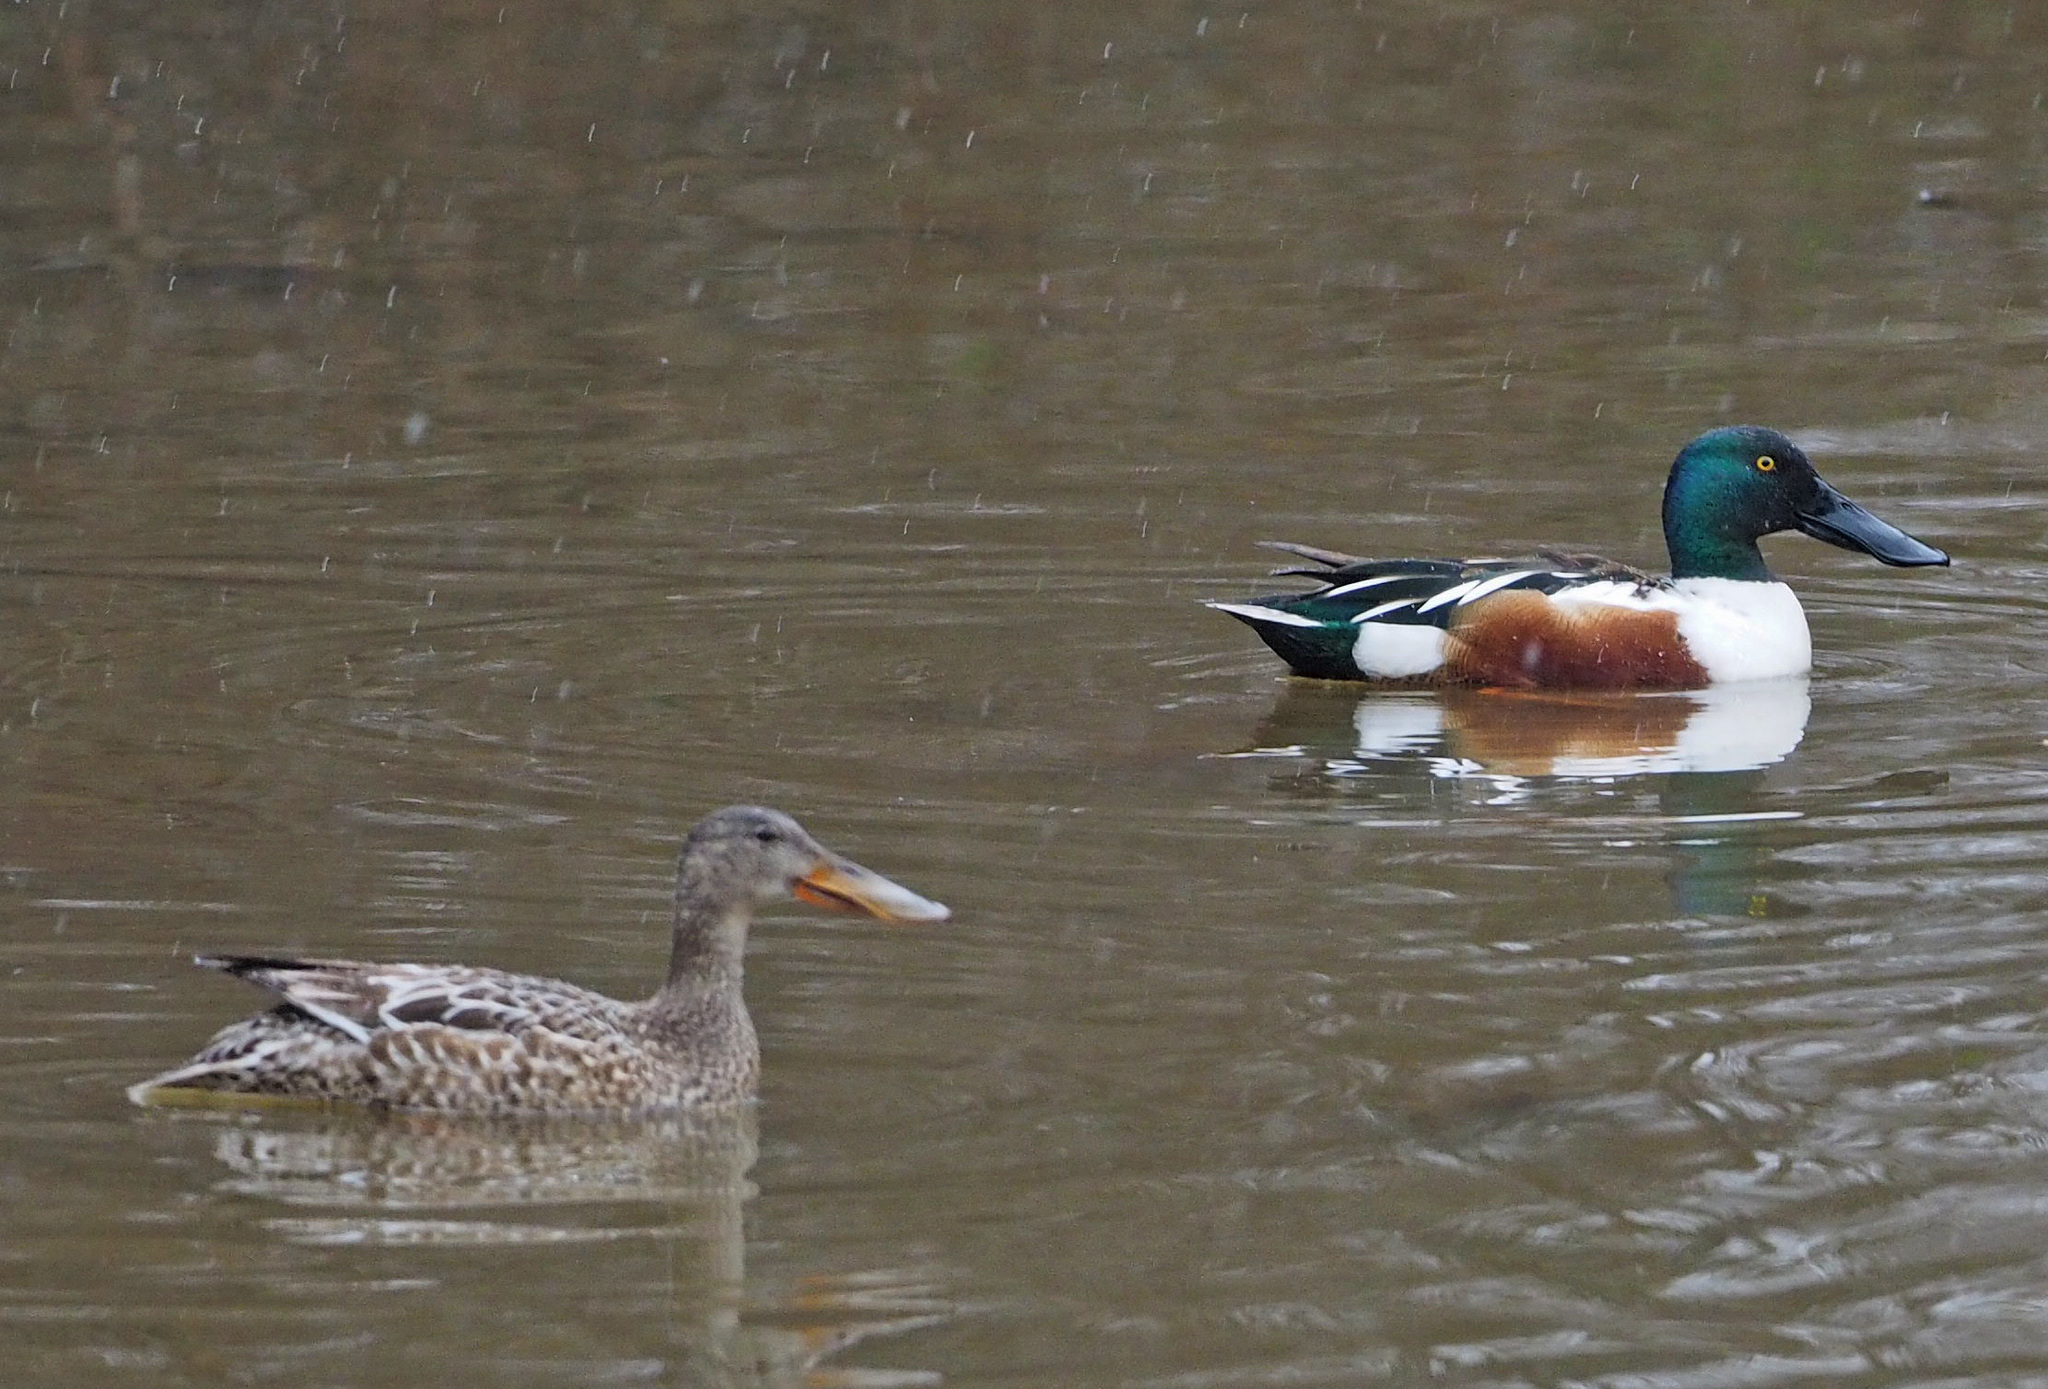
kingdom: Animalia
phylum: Chordata
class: Aves
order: Anseriformes
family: Anatidae
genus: Spatula
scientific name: Spatula clypeata
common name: Northern shoveler
